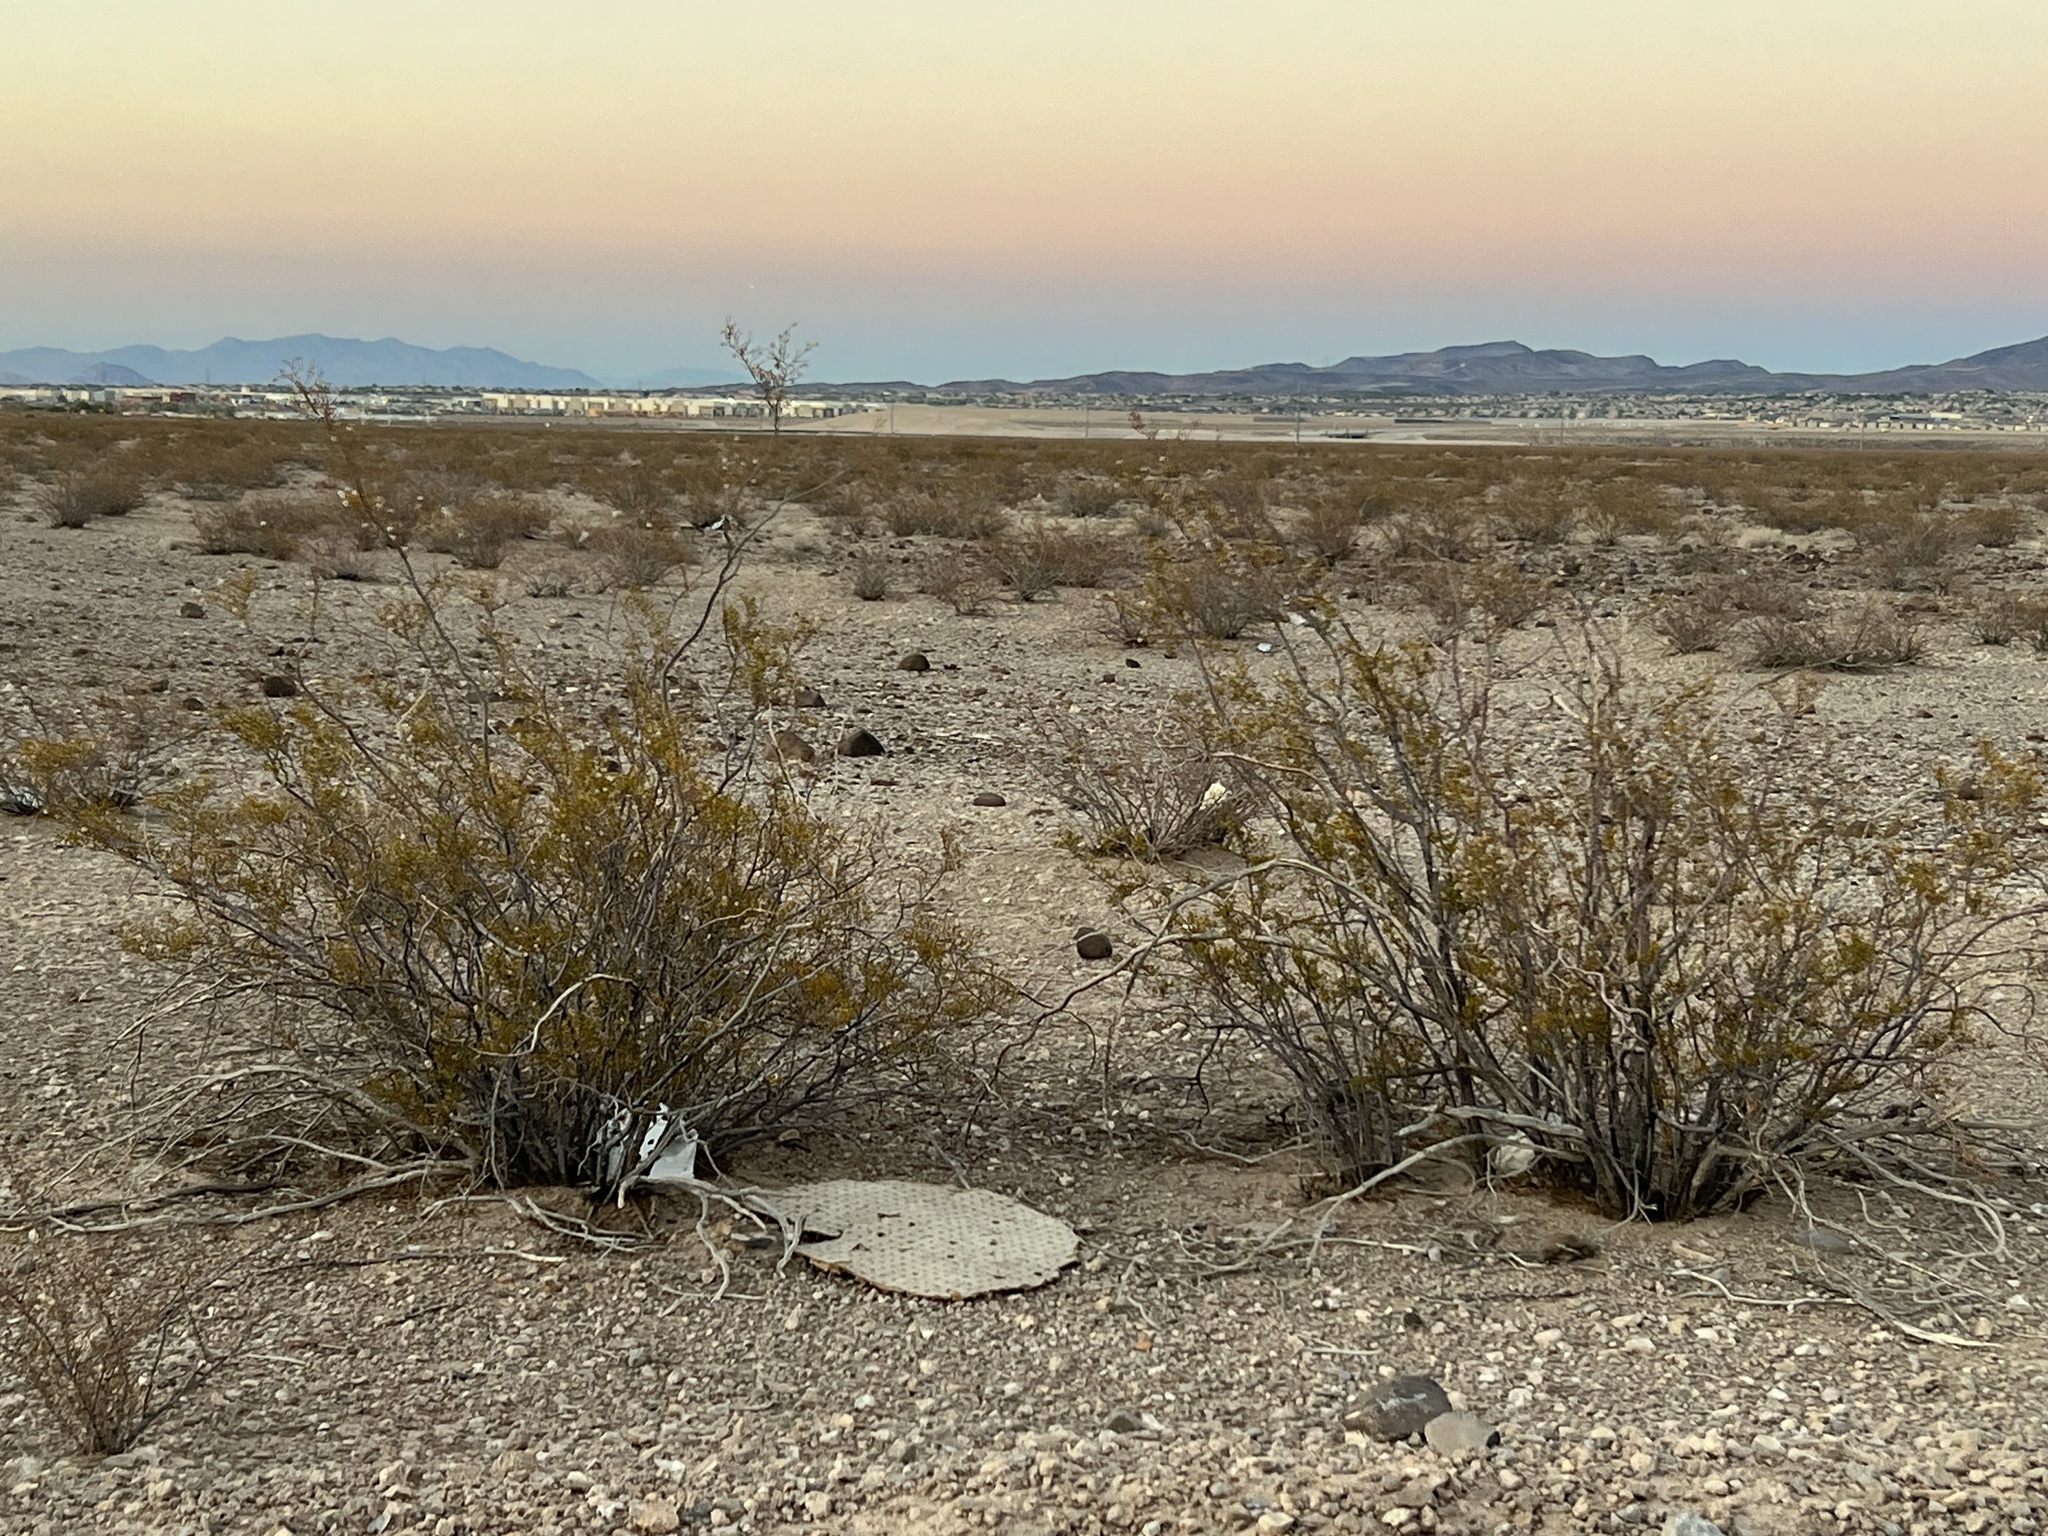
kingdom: Plantae
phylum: Tracheophyta
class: Magnoliopsida
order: Zygophyllales
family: Zygophyllaceae
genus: Larrea
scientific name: Larrea tridentata
